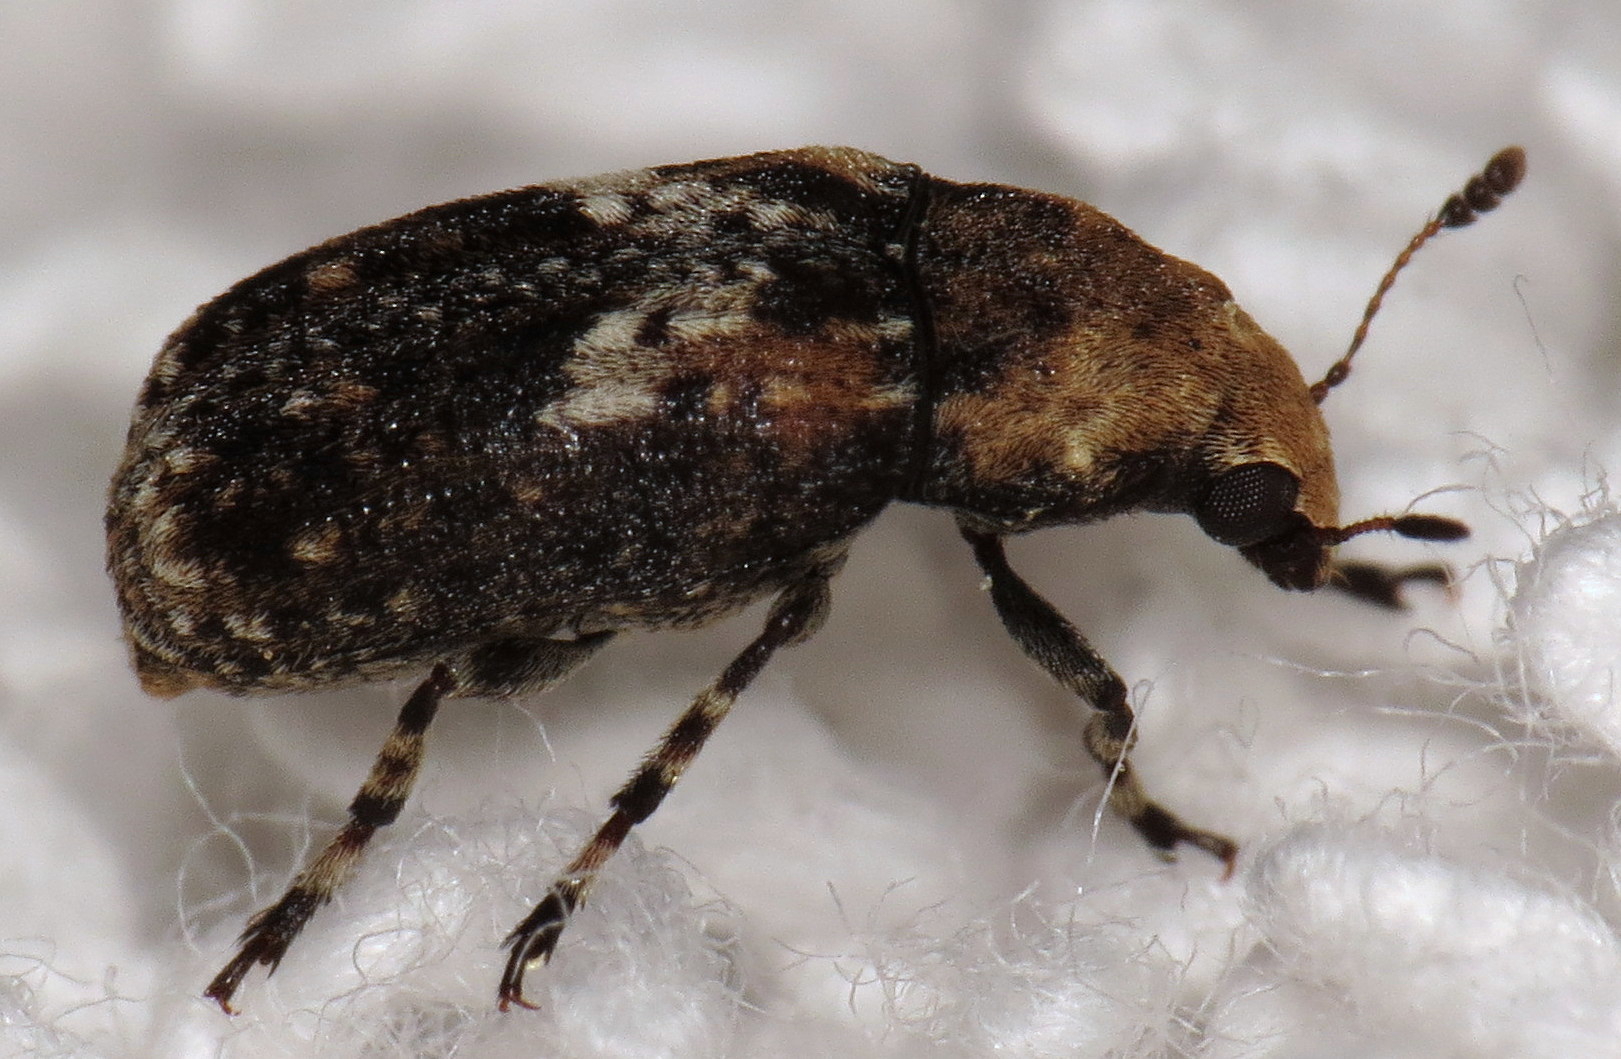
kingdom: Animalia
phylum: Arthropoda
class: Insecta
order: Coleoptera
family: Anthribidae
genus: Euparius
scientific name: Euparius paganus
